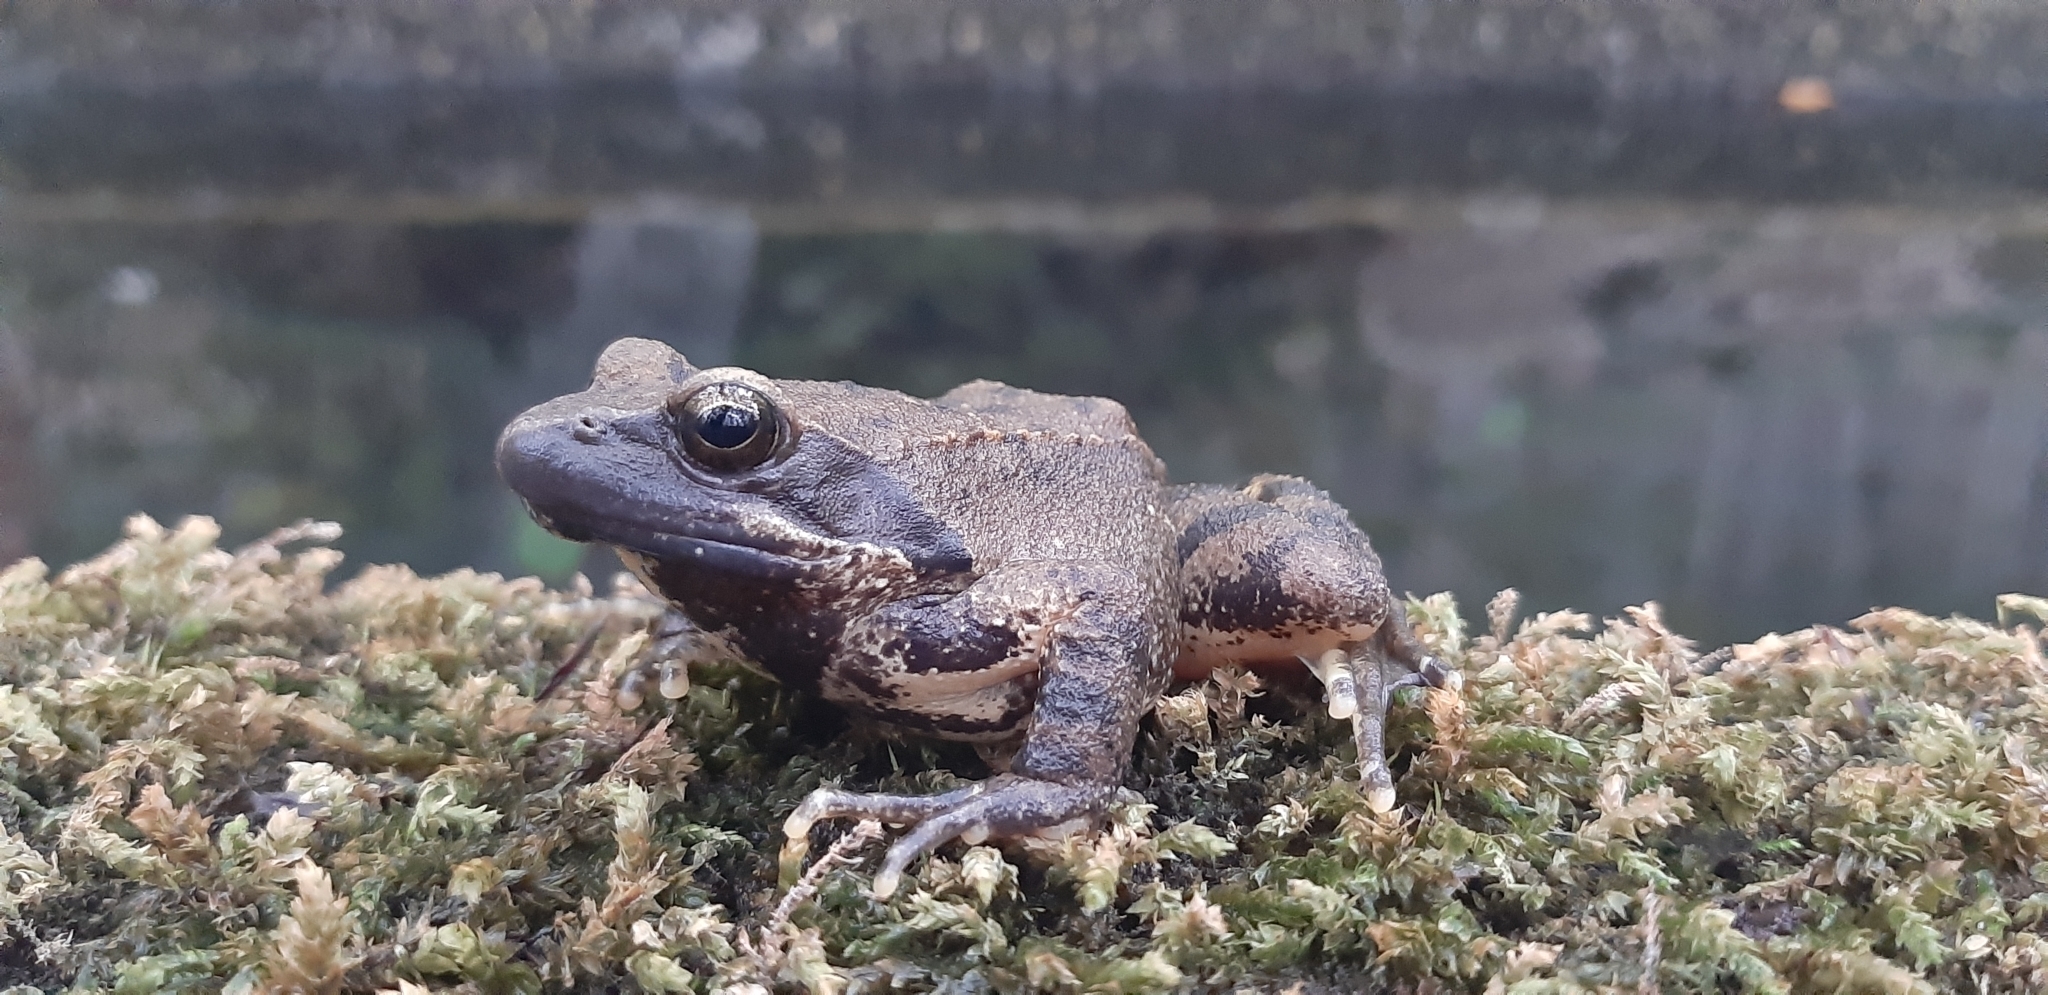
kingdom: Animalia
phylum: Chordata
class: Amphibia
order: Anura
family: Ranidae
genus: Rana
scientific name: Rana italica
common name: Italian stream frog
